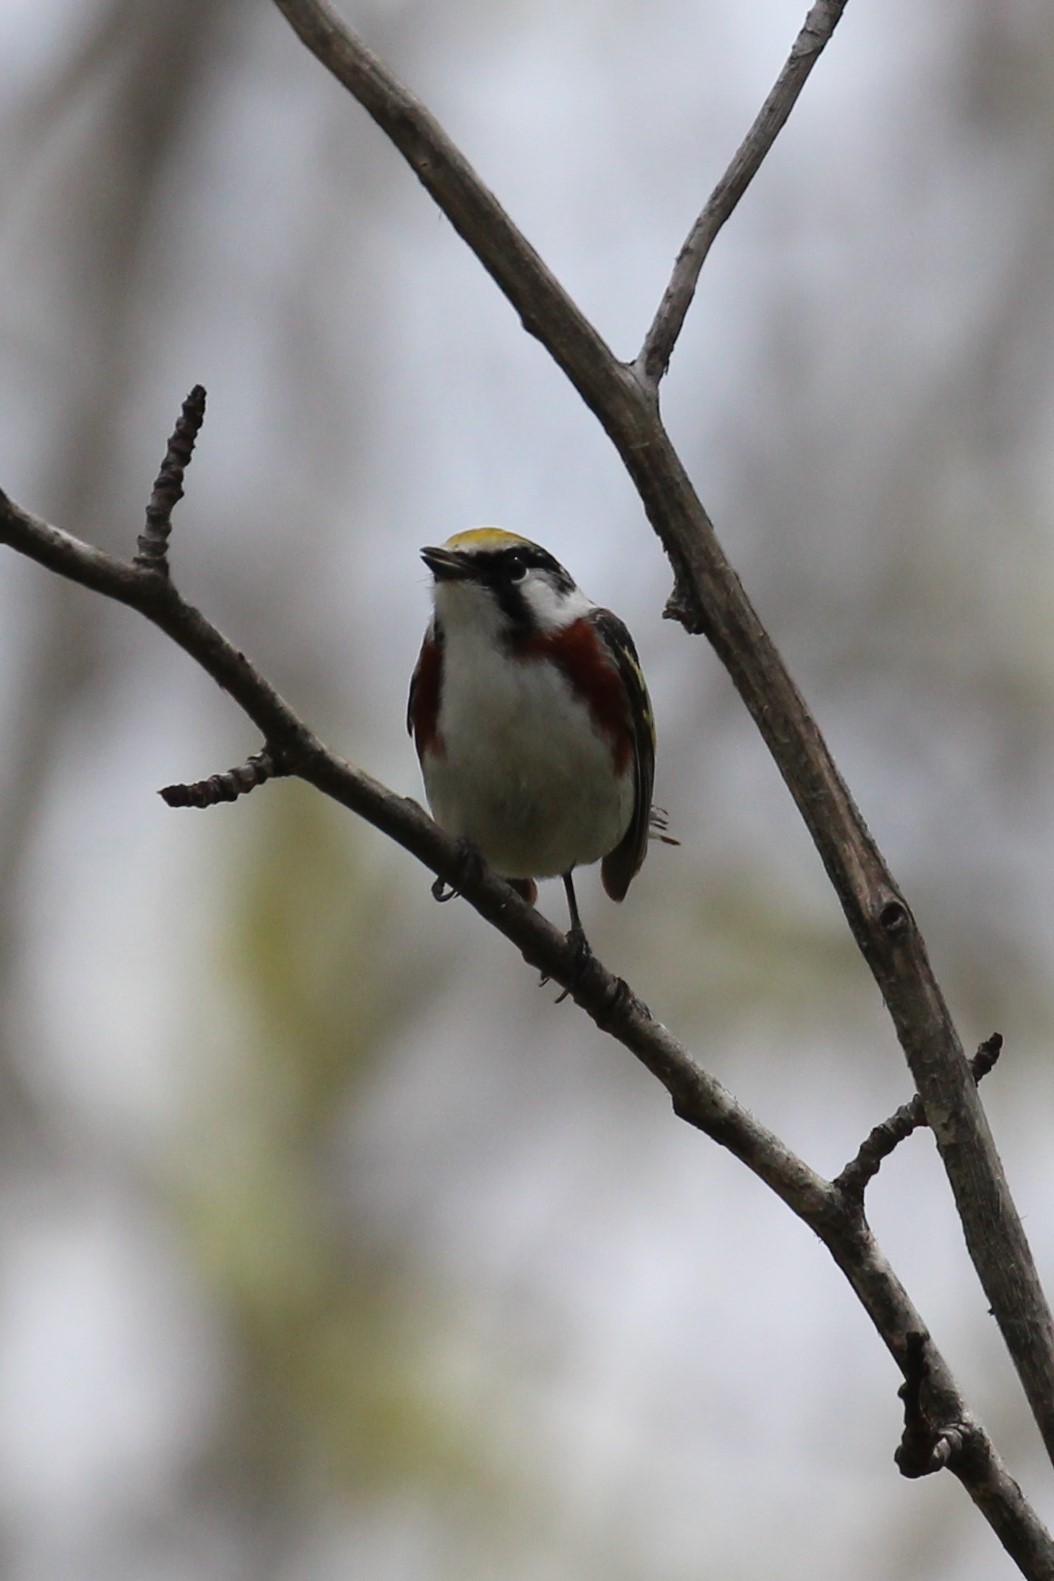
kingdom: Animalia
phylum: Chordata
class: Aves
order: Passeriformes
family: Parulidae
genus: Setophaga
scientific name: Setophaga pensylvanica
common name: Chestnut-sided warbler
